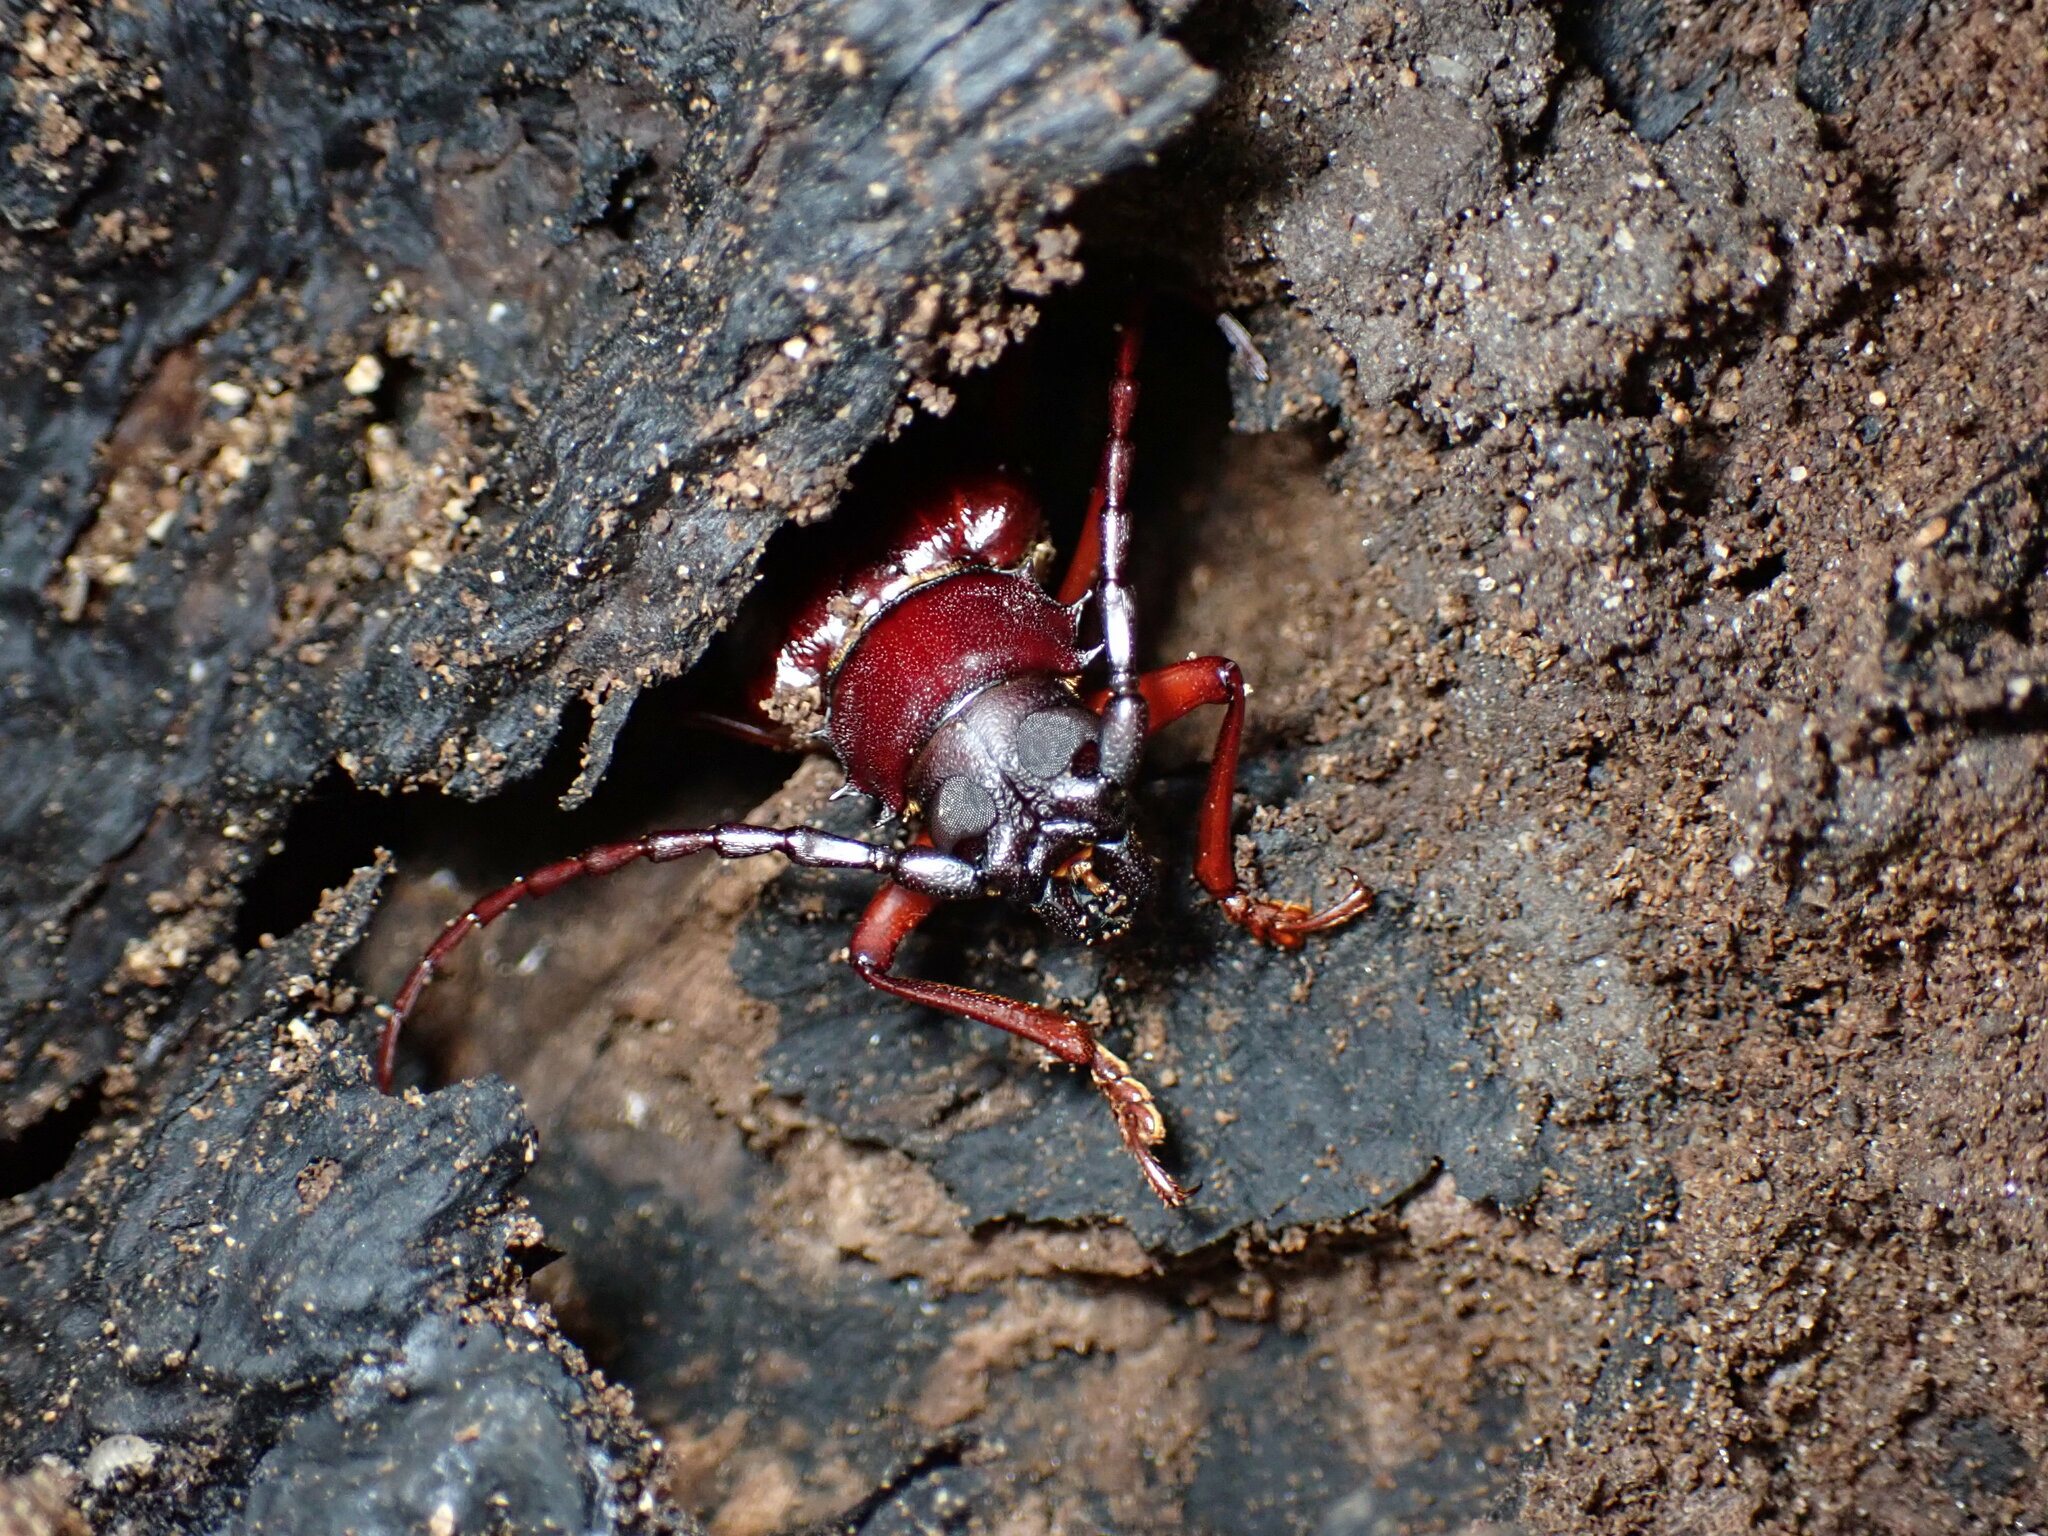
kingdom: Animalia
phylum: Arthropoda
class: Insecta
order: Coleoptera
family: Cerambycidae
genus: Orthosoma
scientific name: Orthosoma brunneum
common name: Brown prionid beetle
